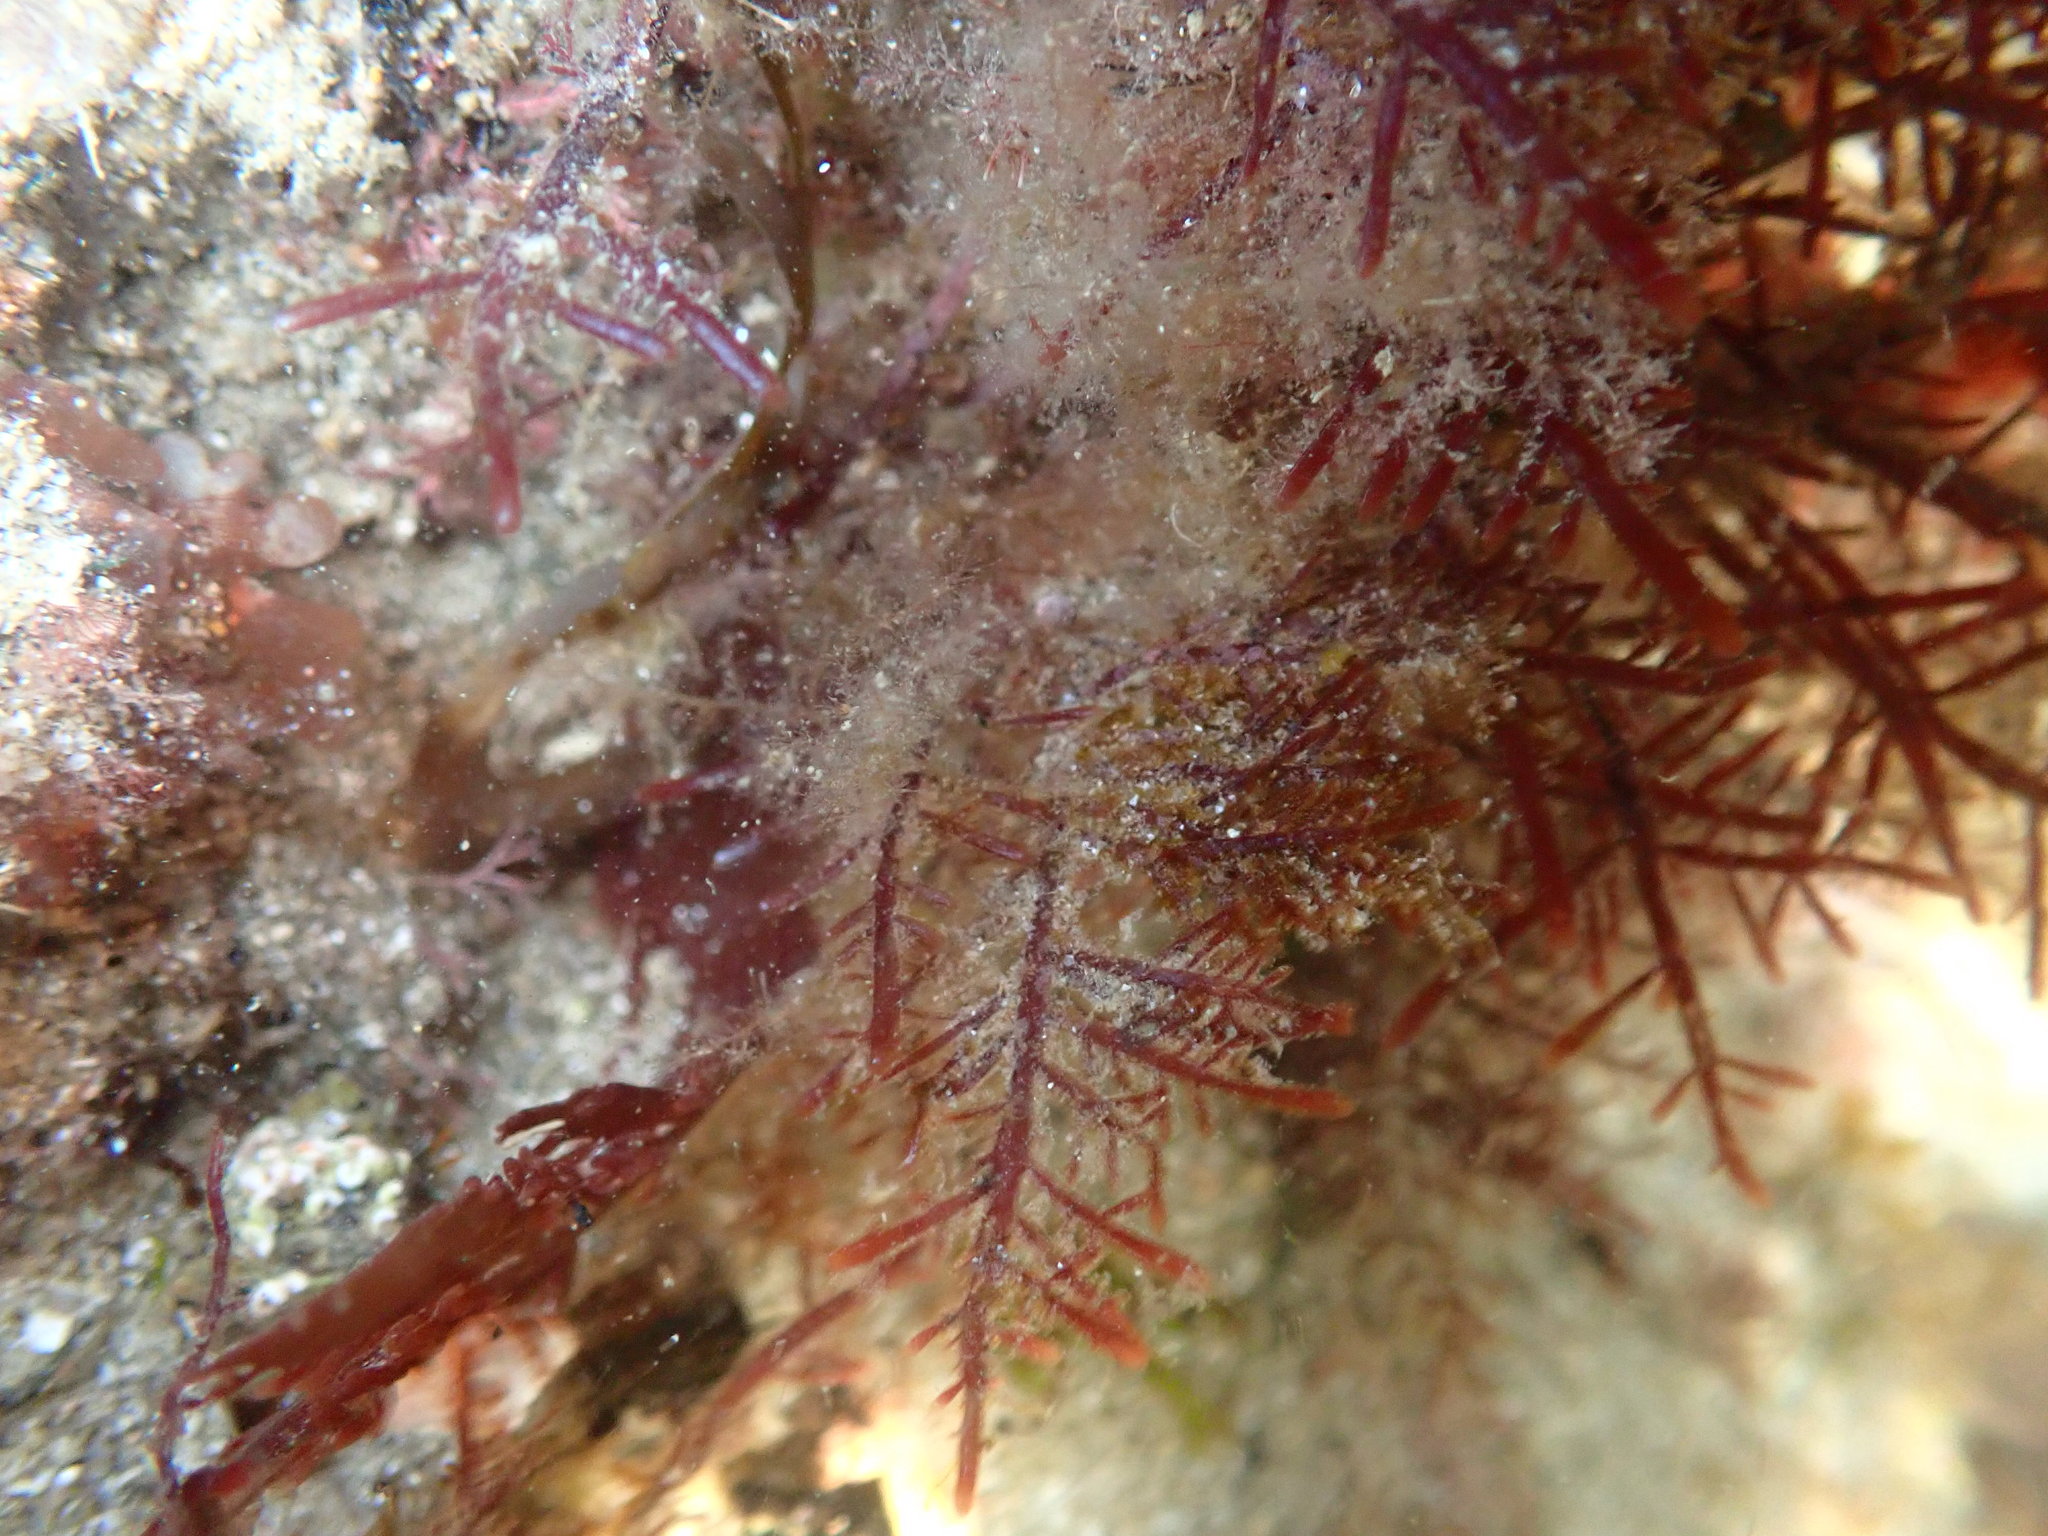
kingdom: Plantae
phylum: Rhodophyta
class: Florideophyceae
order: Gelidiales
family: Pterocladiaceae
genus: Pterocladiella
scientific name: Pterocladiella capillacea
